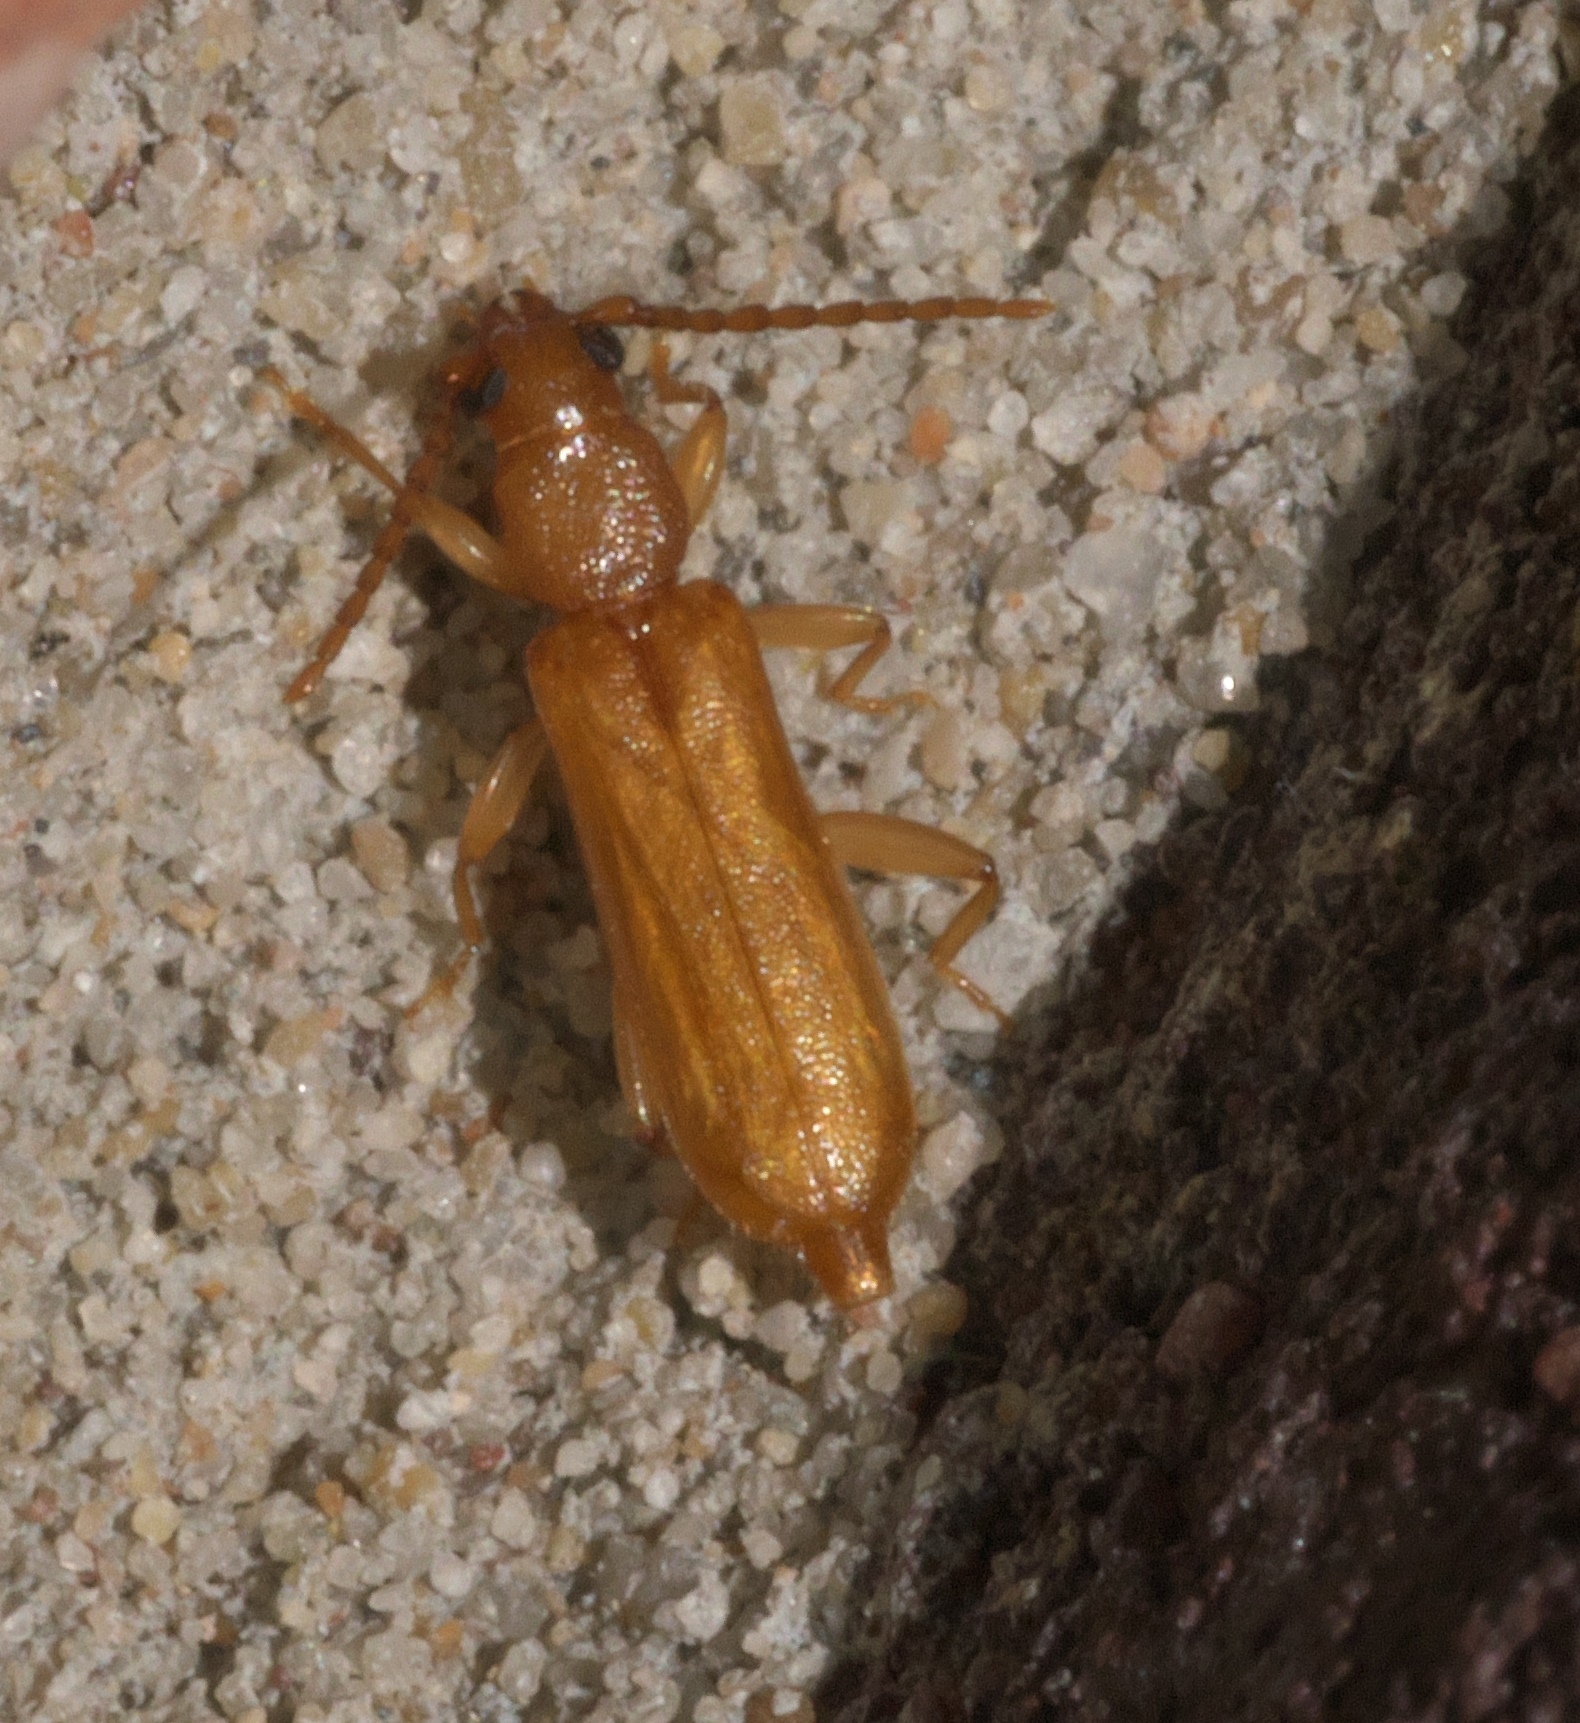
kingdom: Animalia
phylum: Arthropoda
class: Insecta
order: Coleoptera
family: Cerambycidae
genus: Smodicum
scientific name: Smodicum cucujiforme
